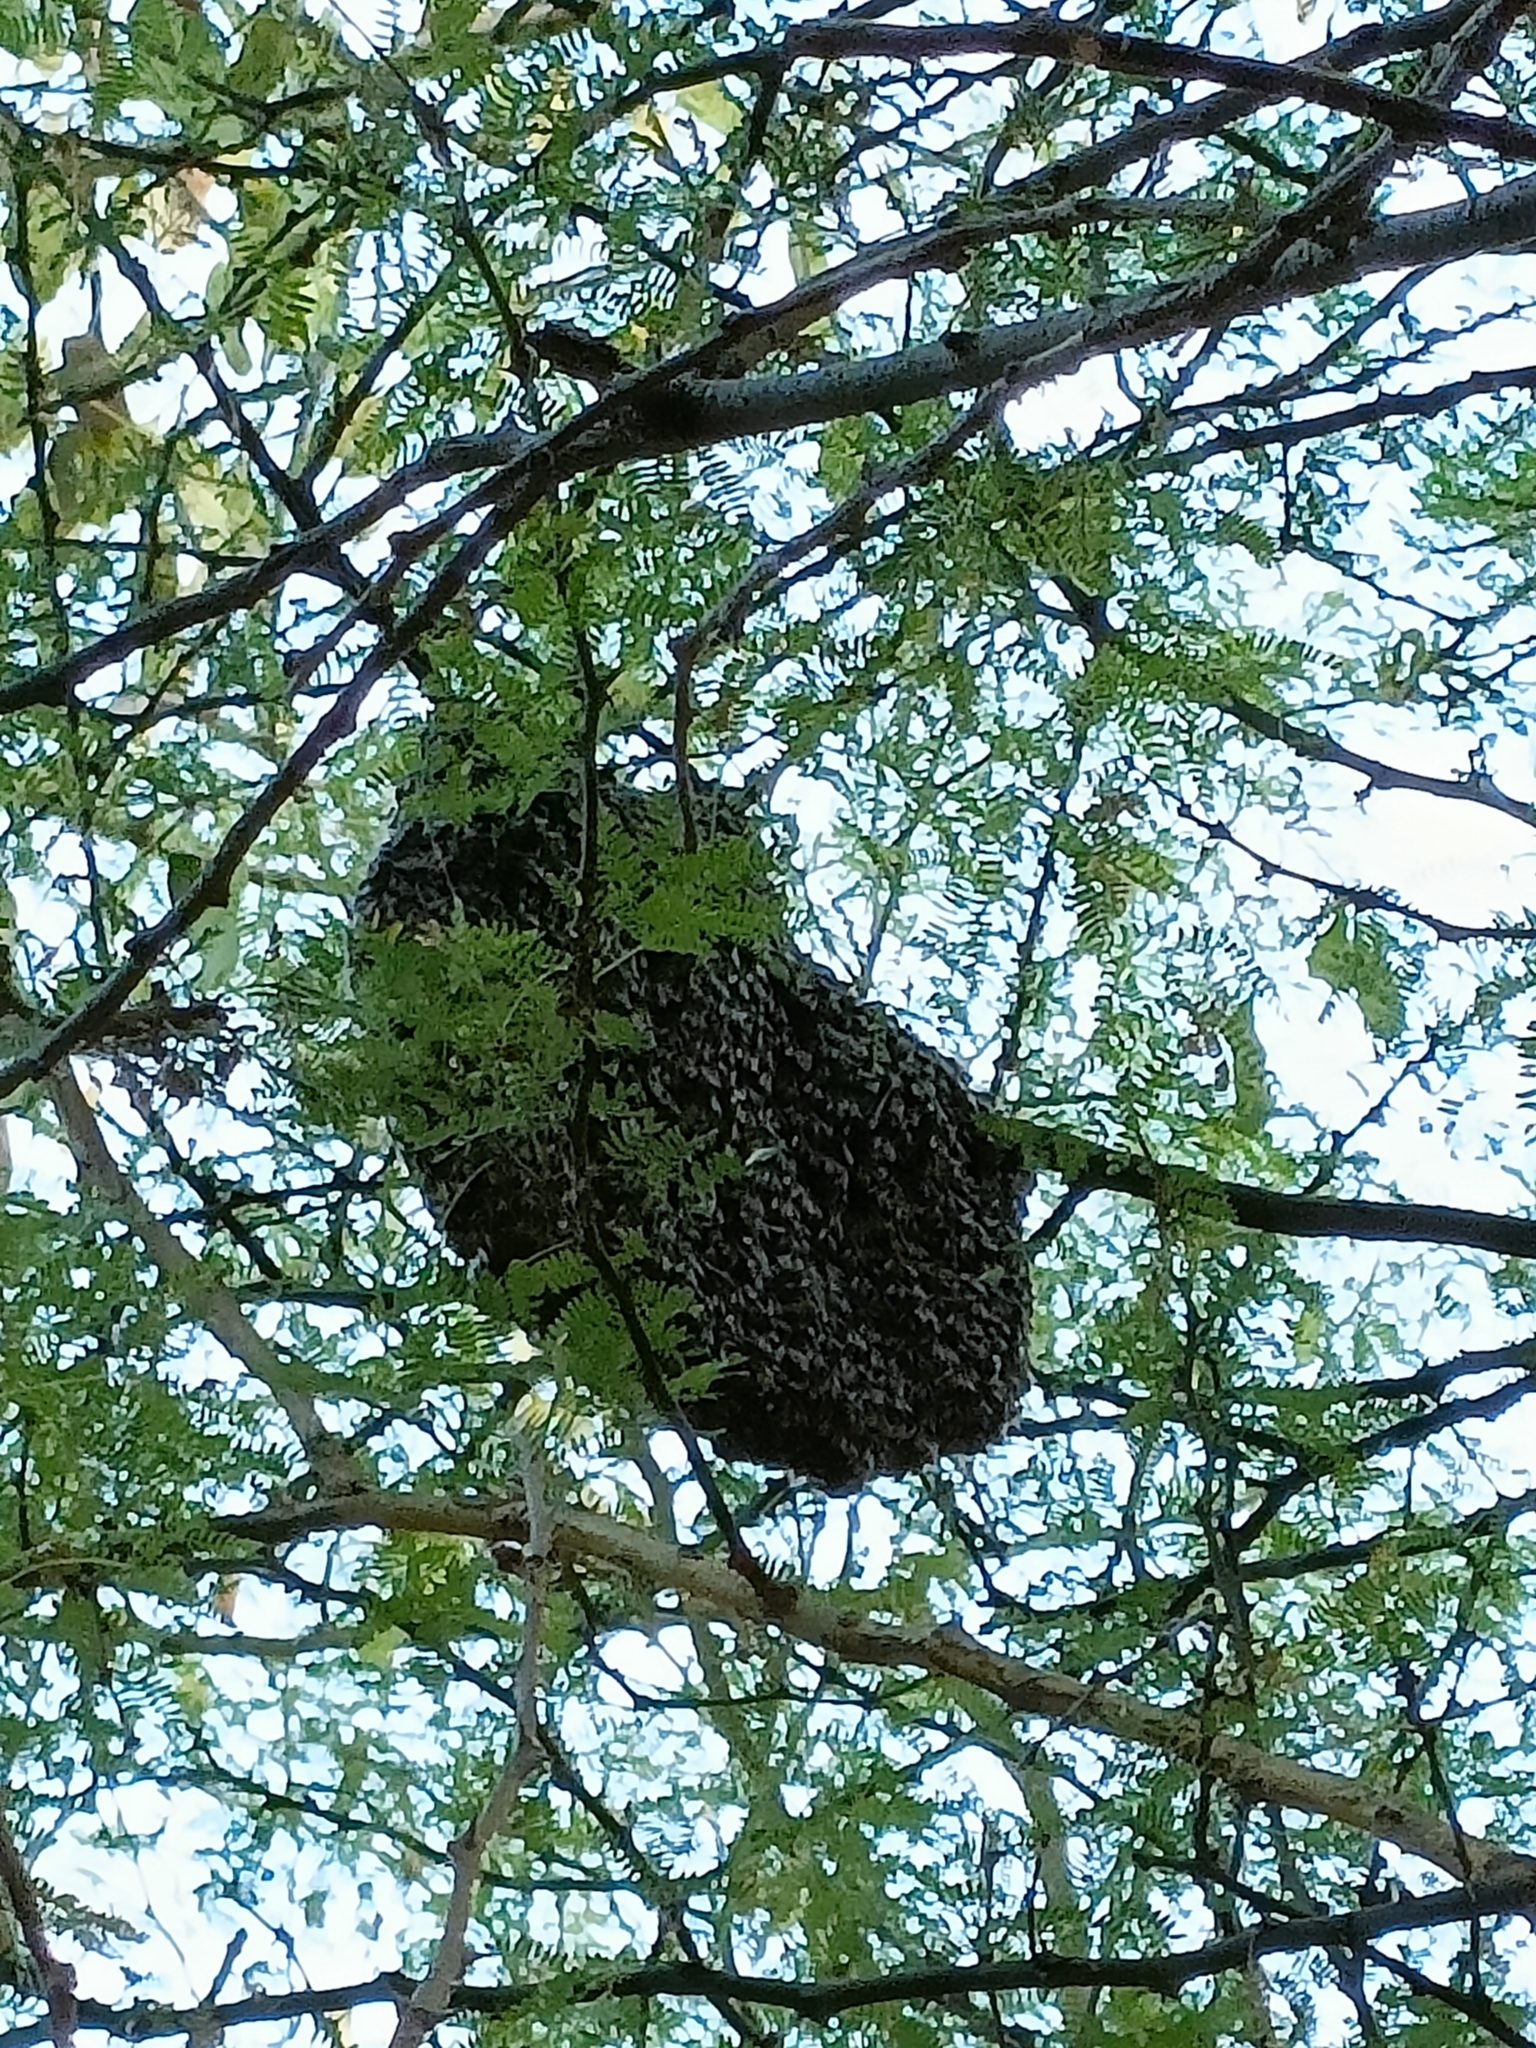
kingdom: Animalia
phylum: Arthropoda
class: Insecta
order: Hymenoptera
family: Apidae
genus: Apis
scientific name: Apis dorsata
